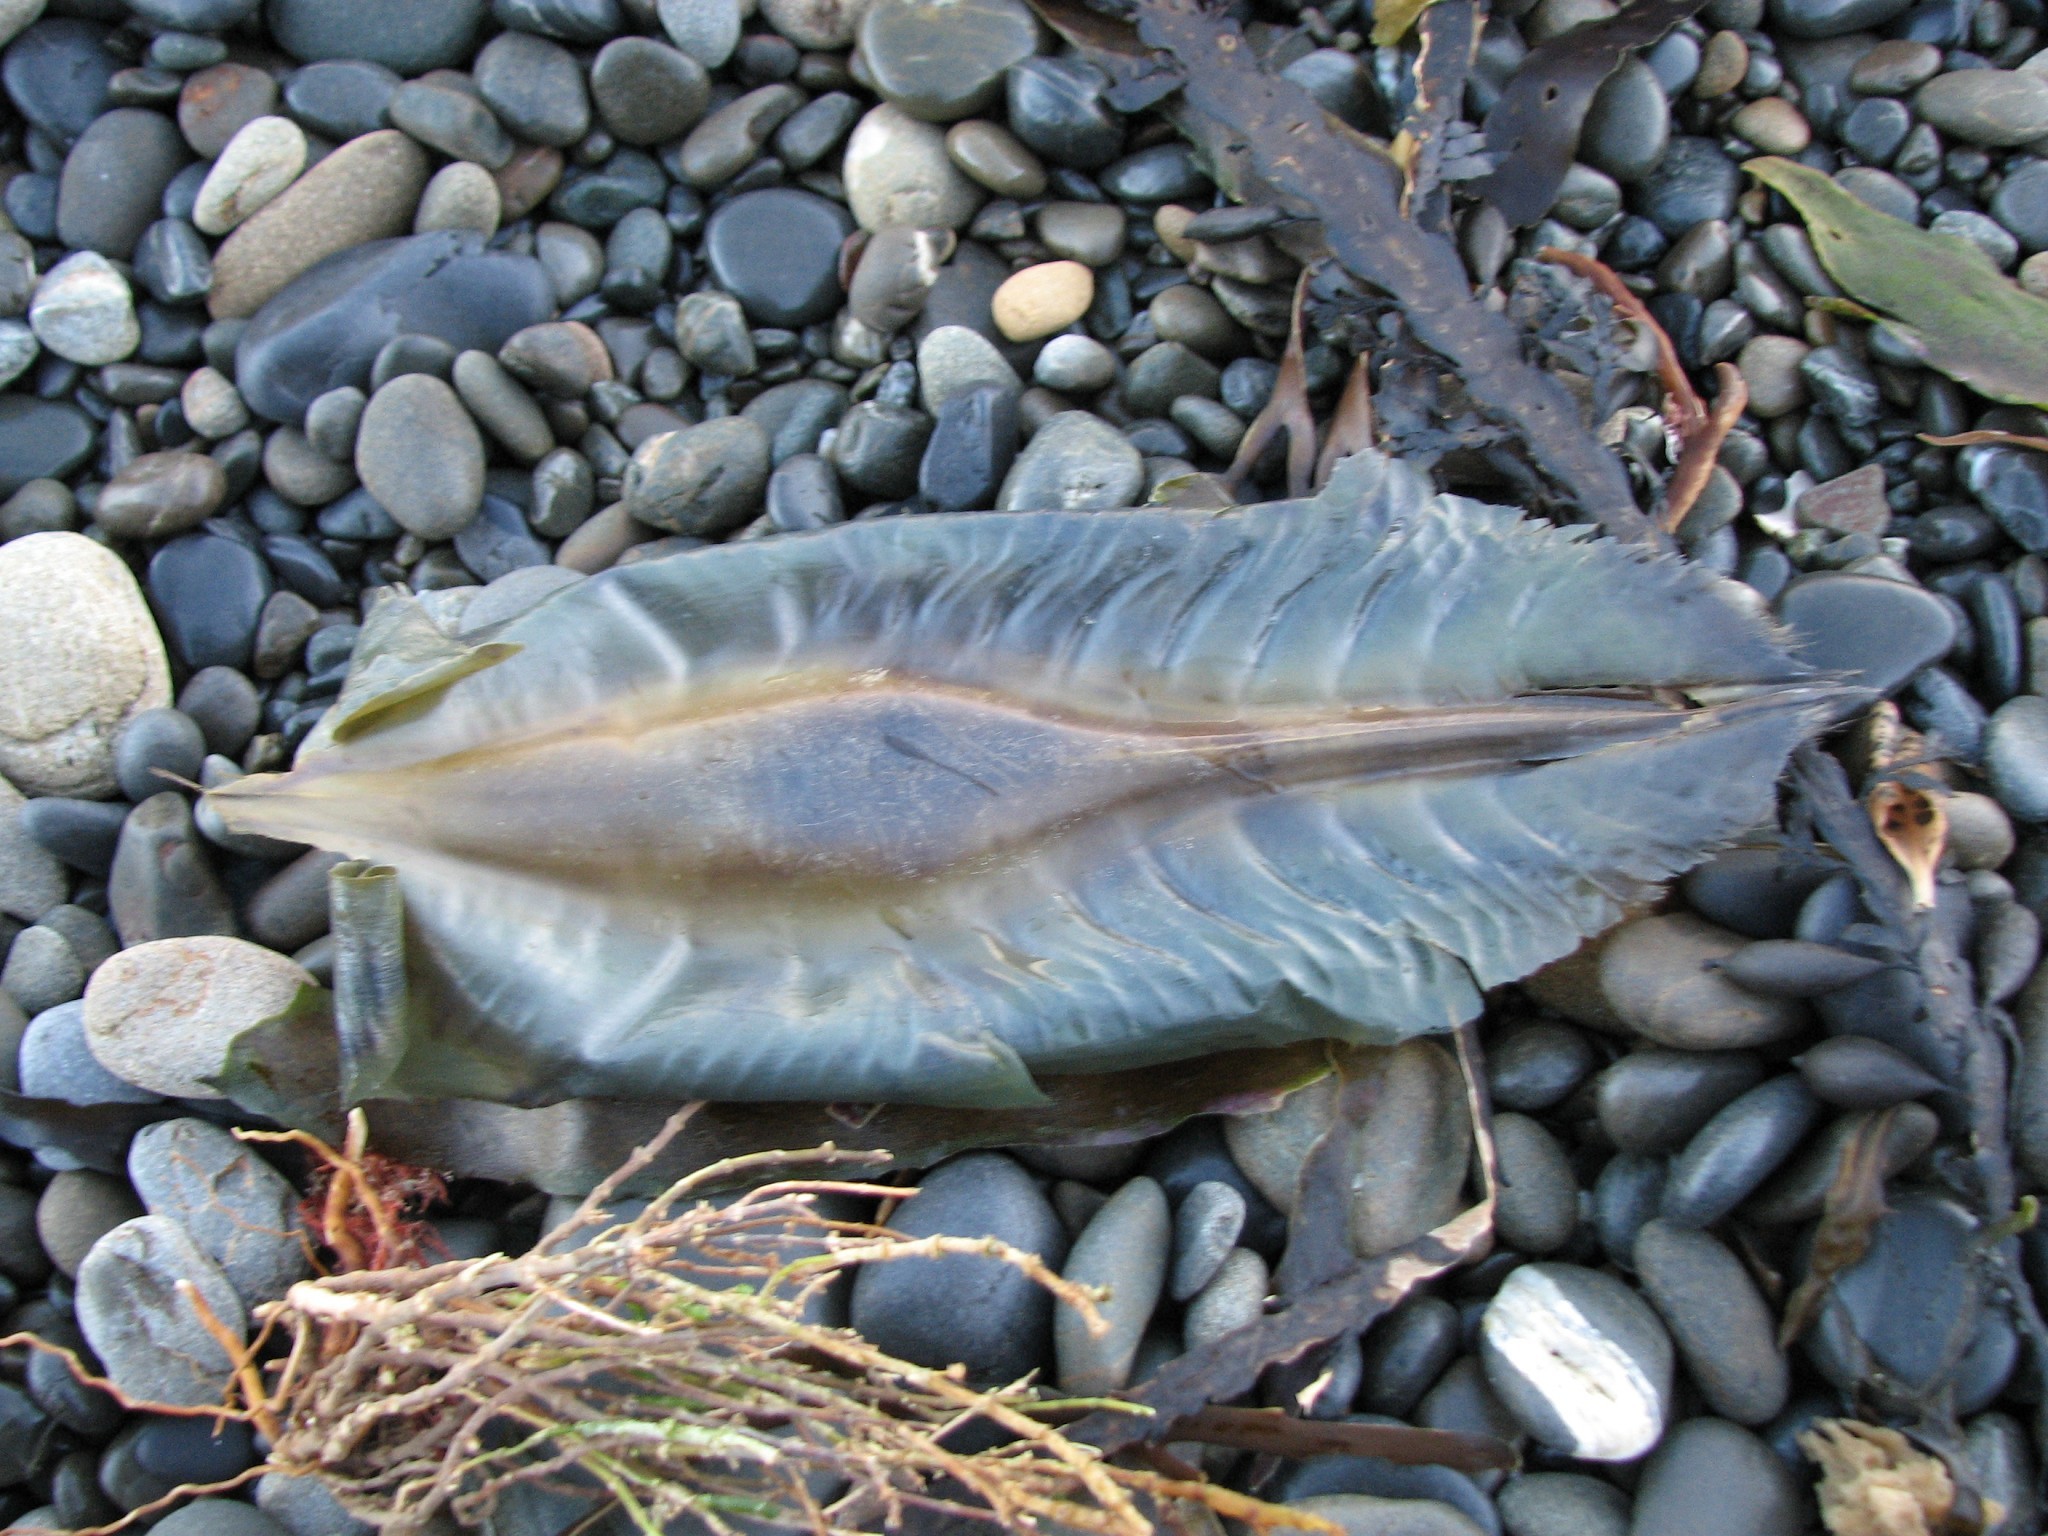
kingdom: Animalia
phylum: Chordata
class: Holocephali
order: Chimaeriformes
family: Callorhinchidae
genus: Callorhinchus
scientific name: Callorhinchus milii
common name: Elephant fish
